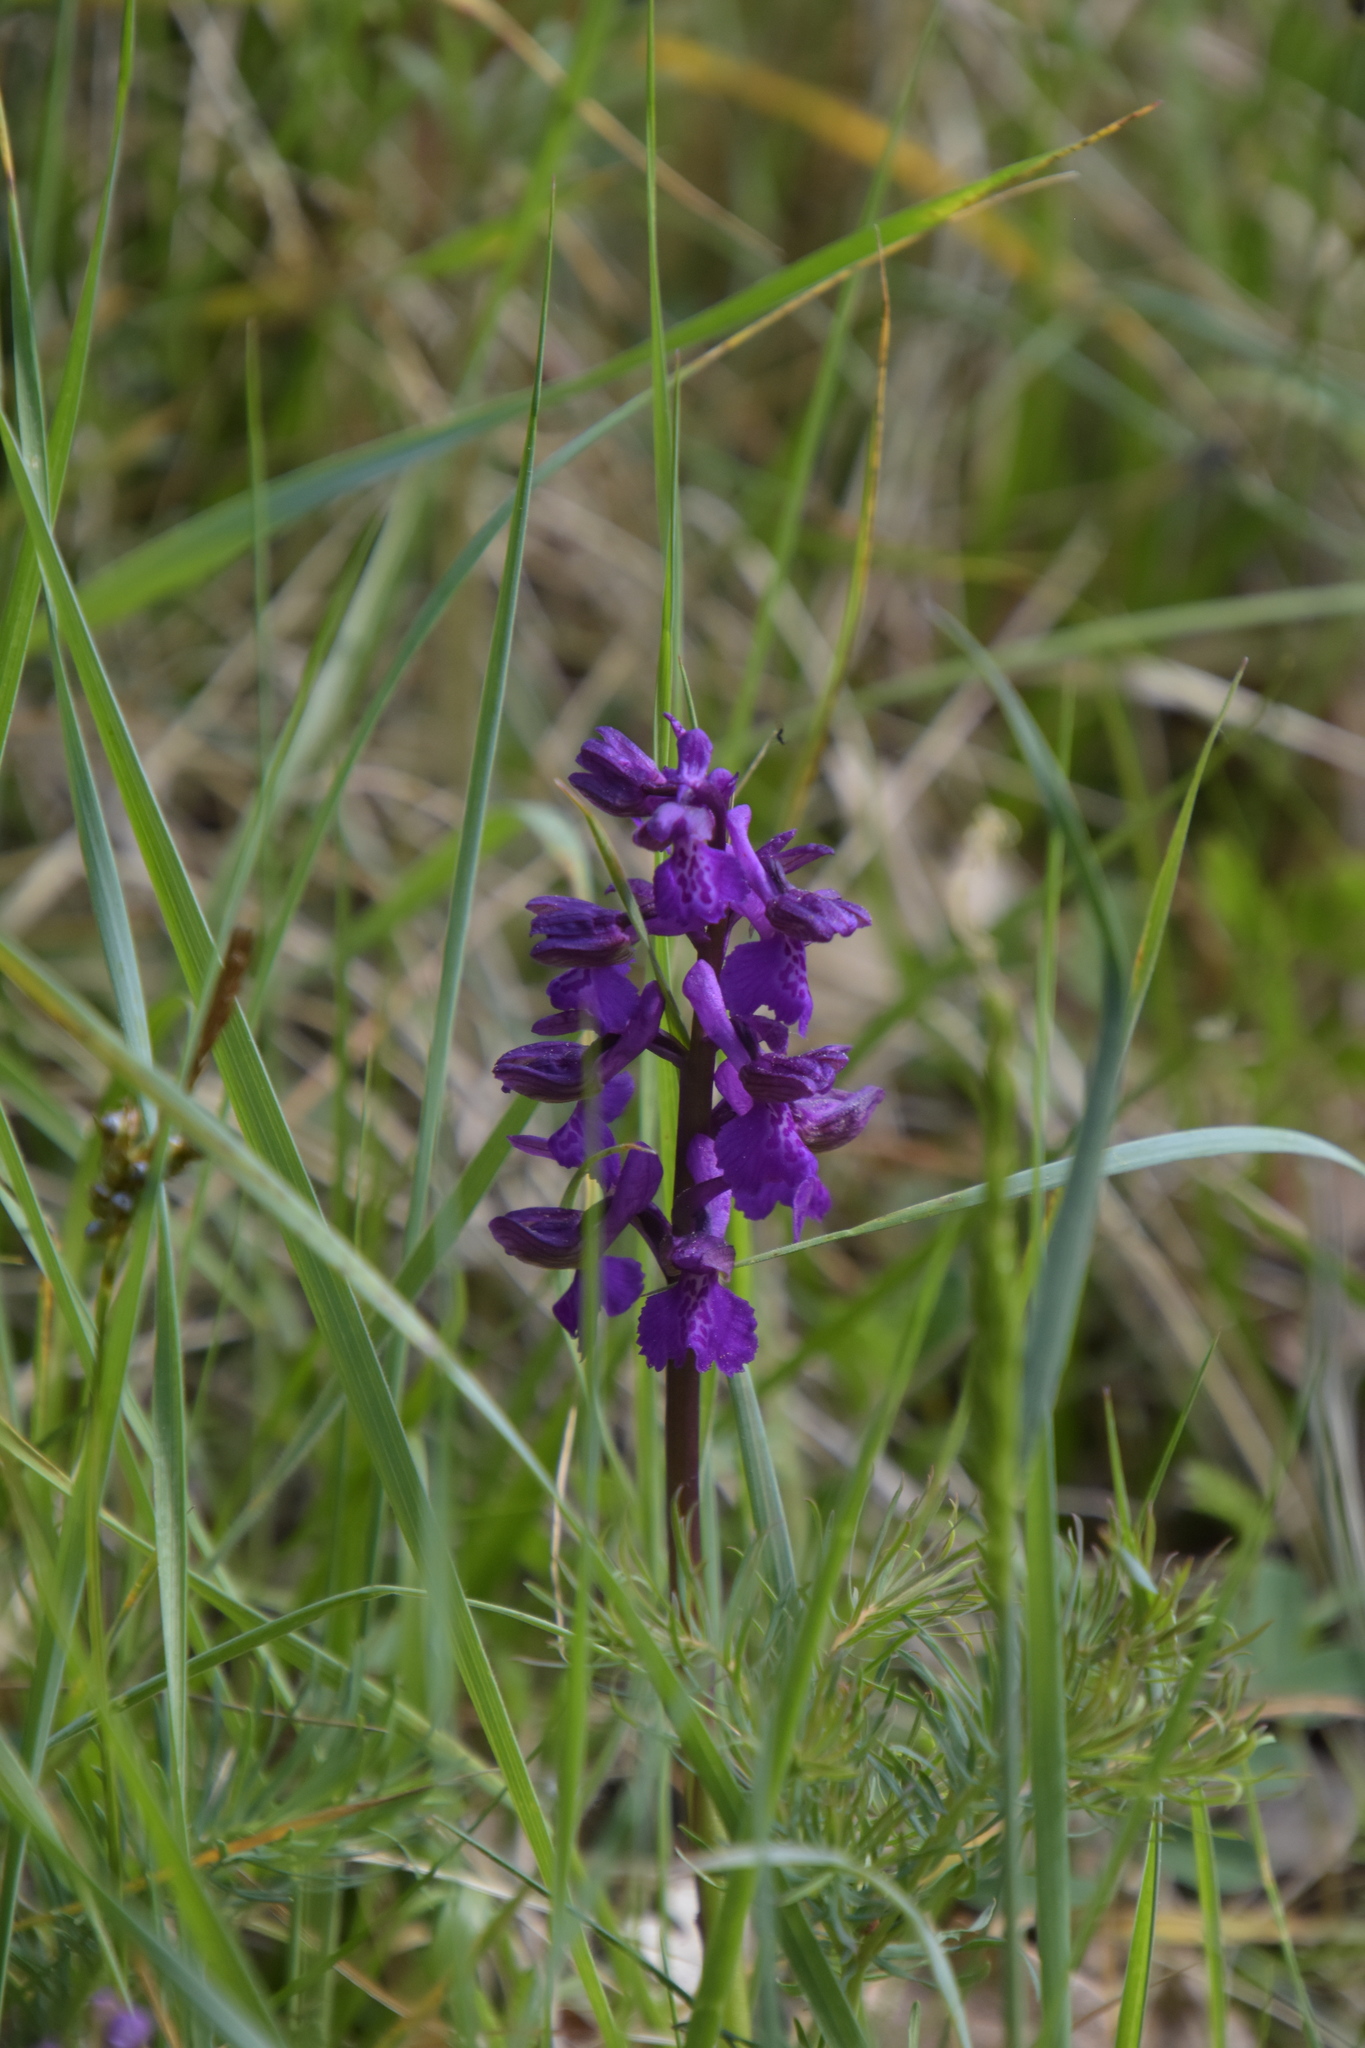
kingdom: Plantae
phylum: Tracheophyta
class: Liliopsida
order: Asparagales
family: Orchidaceae
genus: Anacamptis
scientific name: Anacamptis morio
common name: Green-winged orchid
